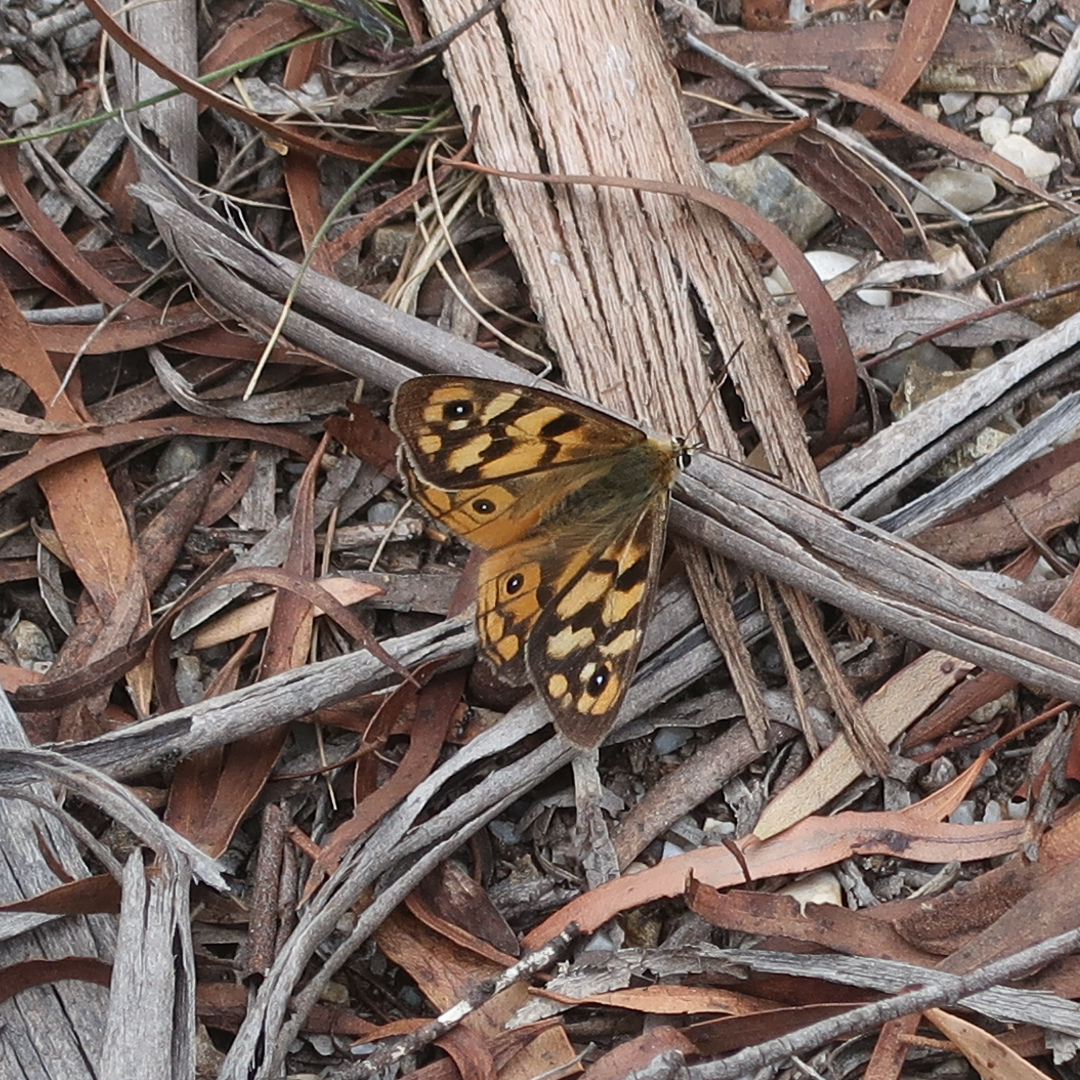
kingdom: Animalia
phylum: Arthropoda
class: Insecta
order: Lepidoptera
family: Nymphalidae
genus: Heteronympha
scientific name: Heteronympha penelope
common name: Shouldered brown
